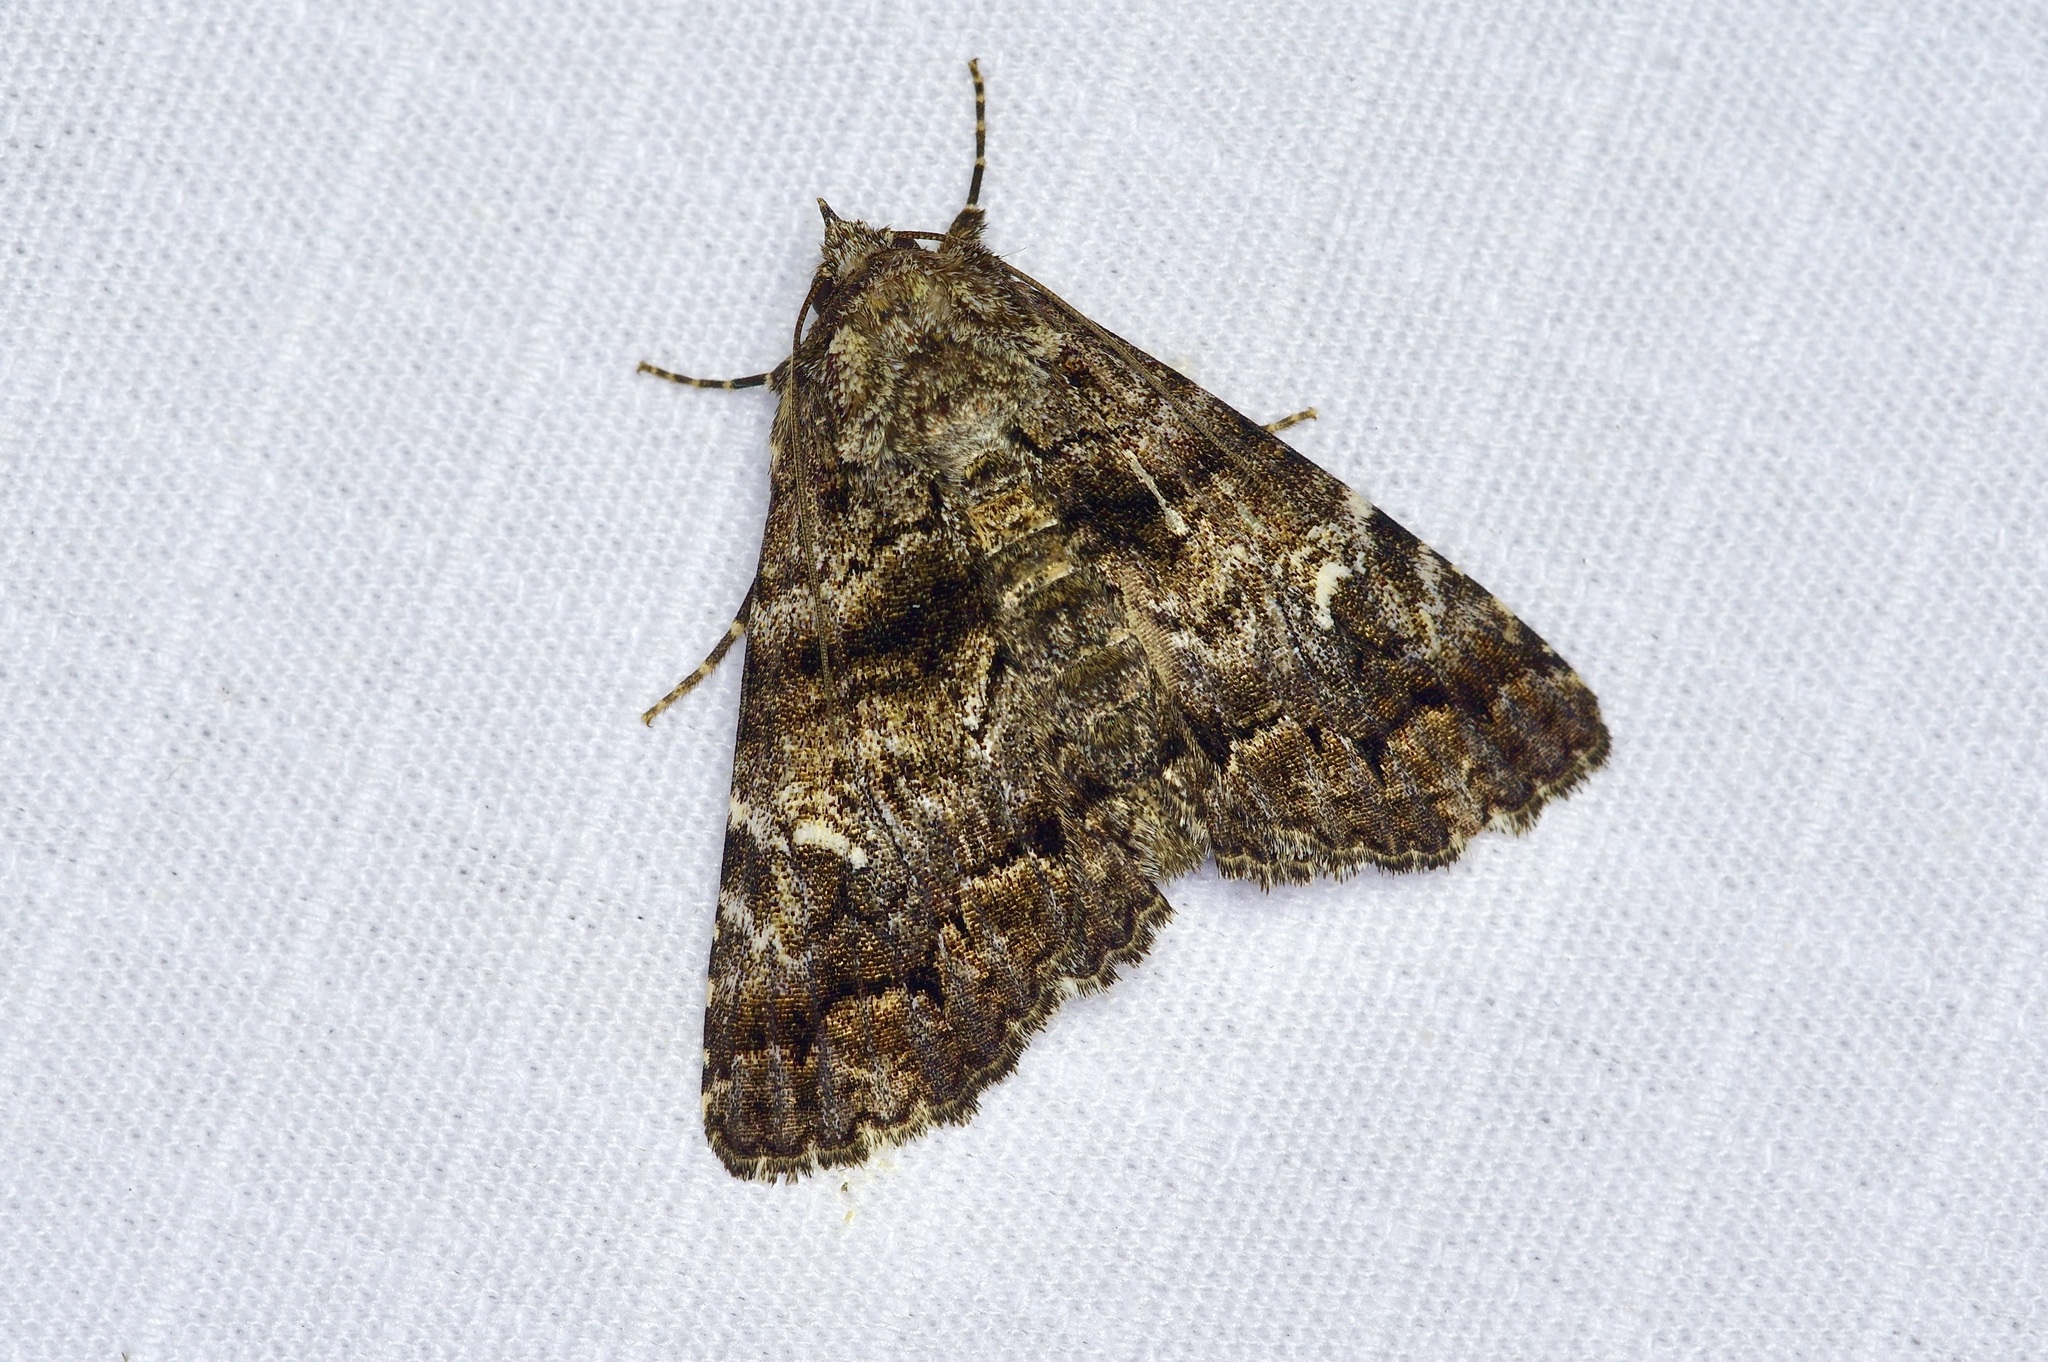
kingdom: Animalia
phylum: Arthropoda
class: Insecta
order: Lepidoptera
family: Erebidae
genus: Metria
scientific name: Metria amella
